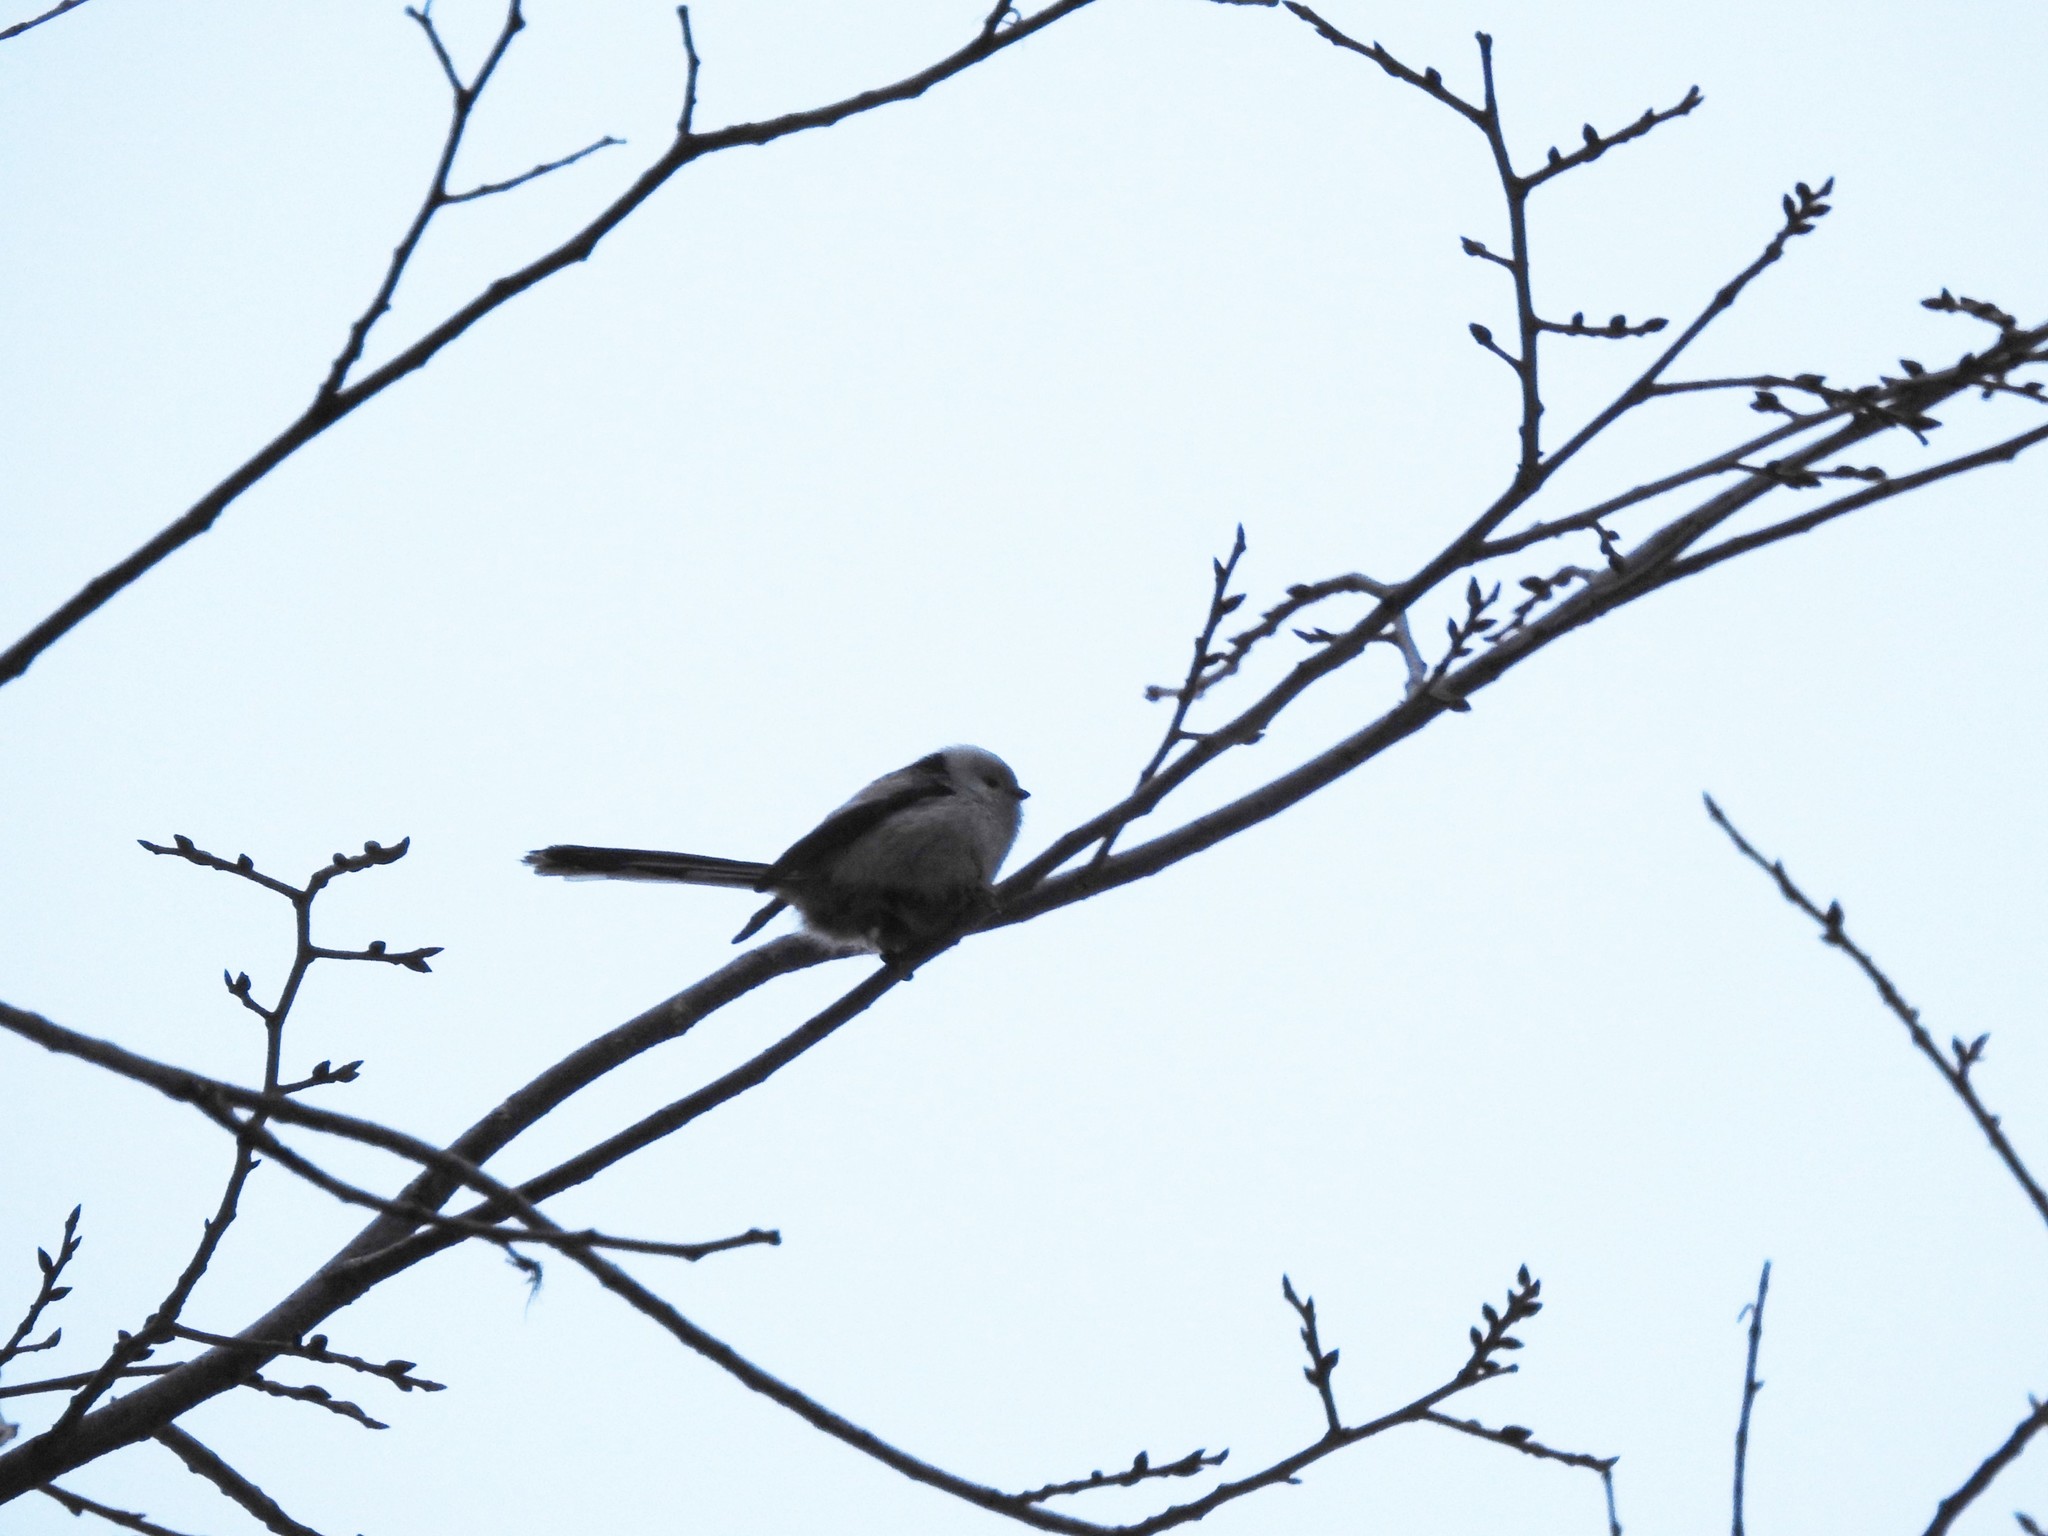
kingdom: Animalia
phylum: Chordata
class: Aves
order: Passeriformes
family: Aegithalidae
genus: Aegithalos
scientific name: Aegithalos caudatus
